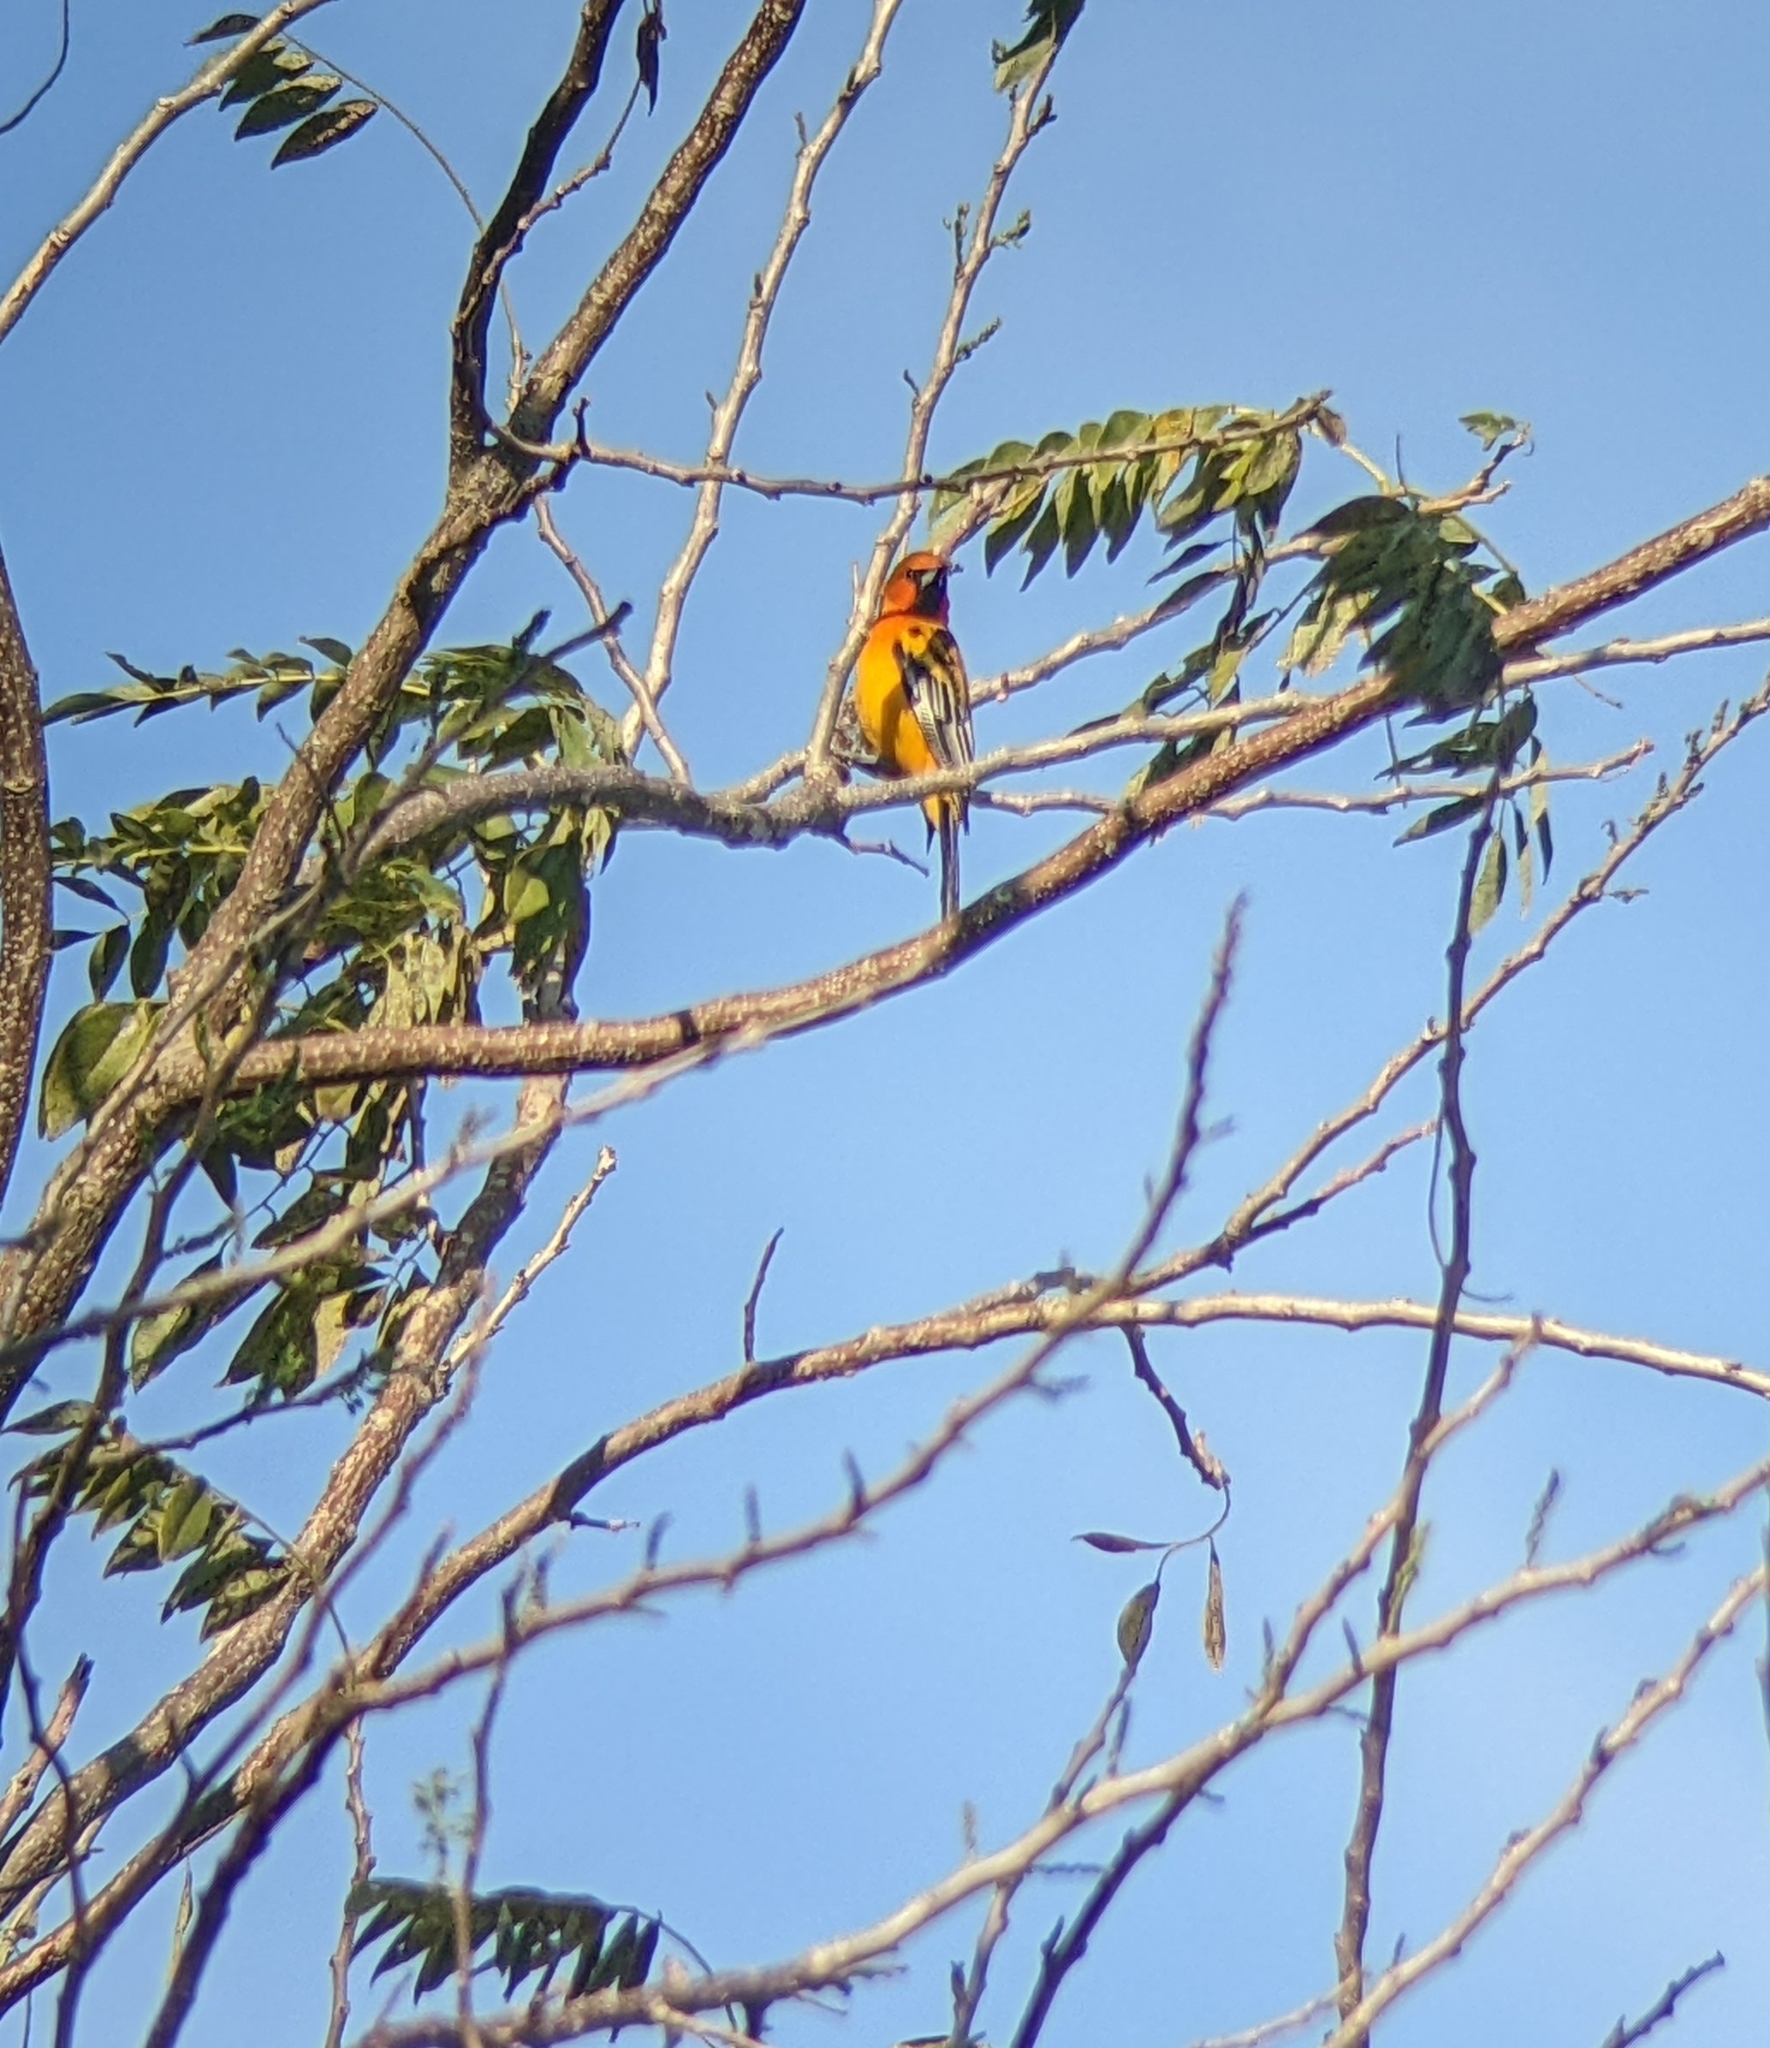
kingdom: Animalia
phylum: Chordata
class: Aves
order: Passeriformes
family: Icteridae
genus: Icterus
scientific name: Icterus pustulatus
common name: Streak-backed oriole
